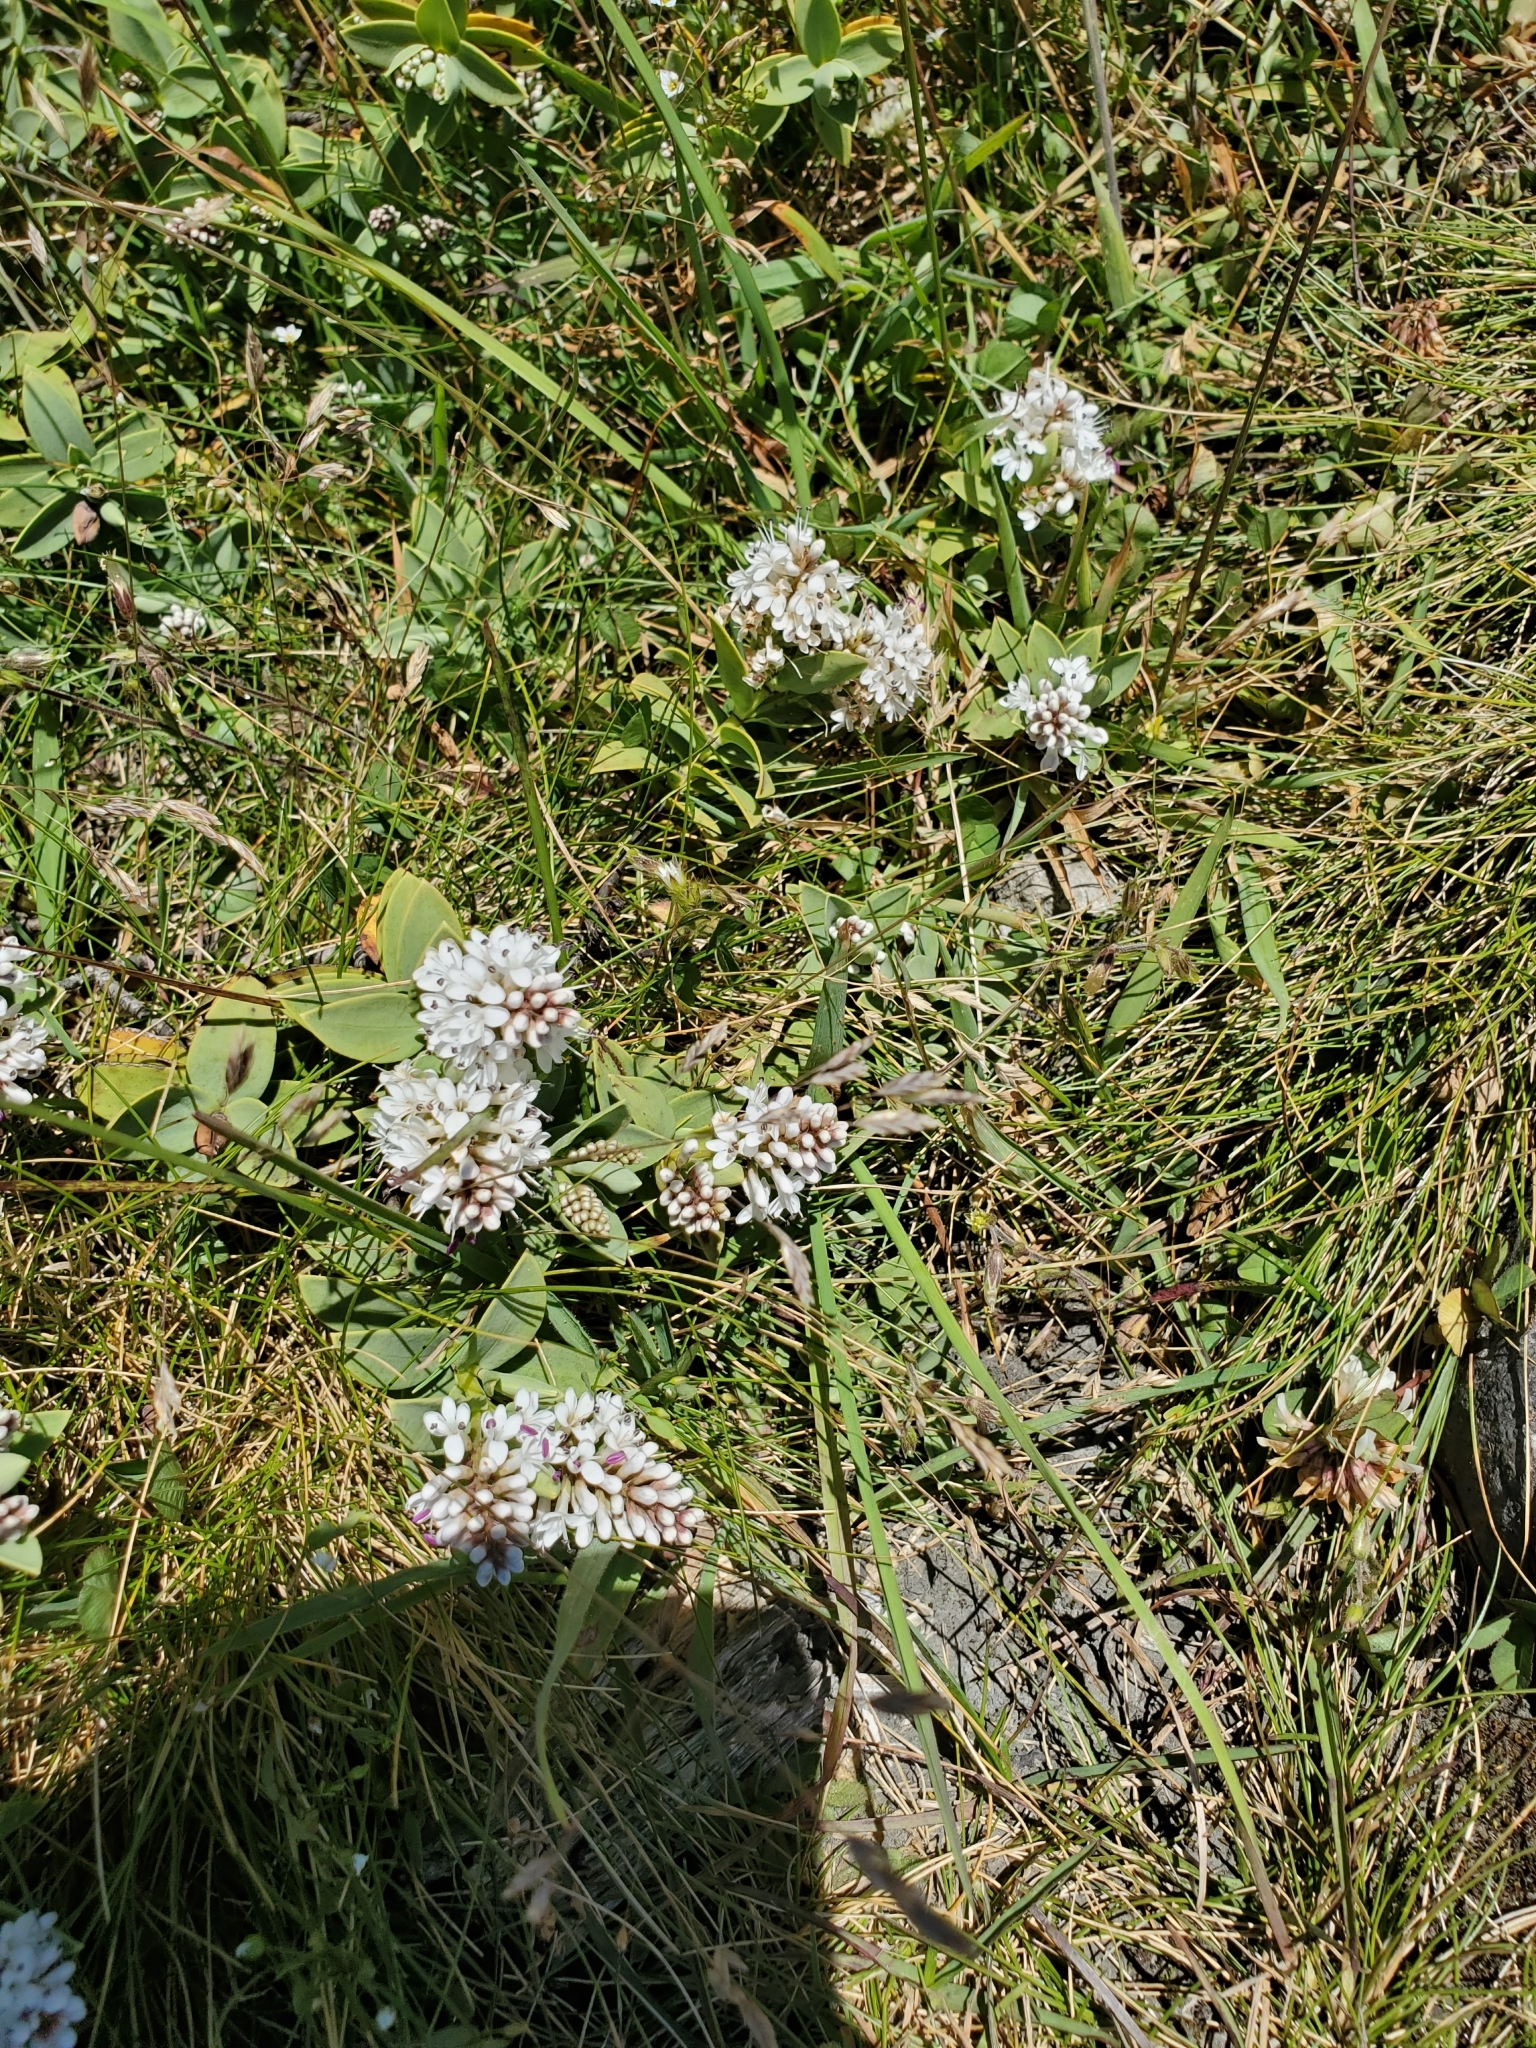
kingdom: Plantae
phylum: Tracheophyta
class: Magnoliopsida
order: Lamiales
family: Plantaginaceae
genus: Veronica
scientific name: Veronica albicans
